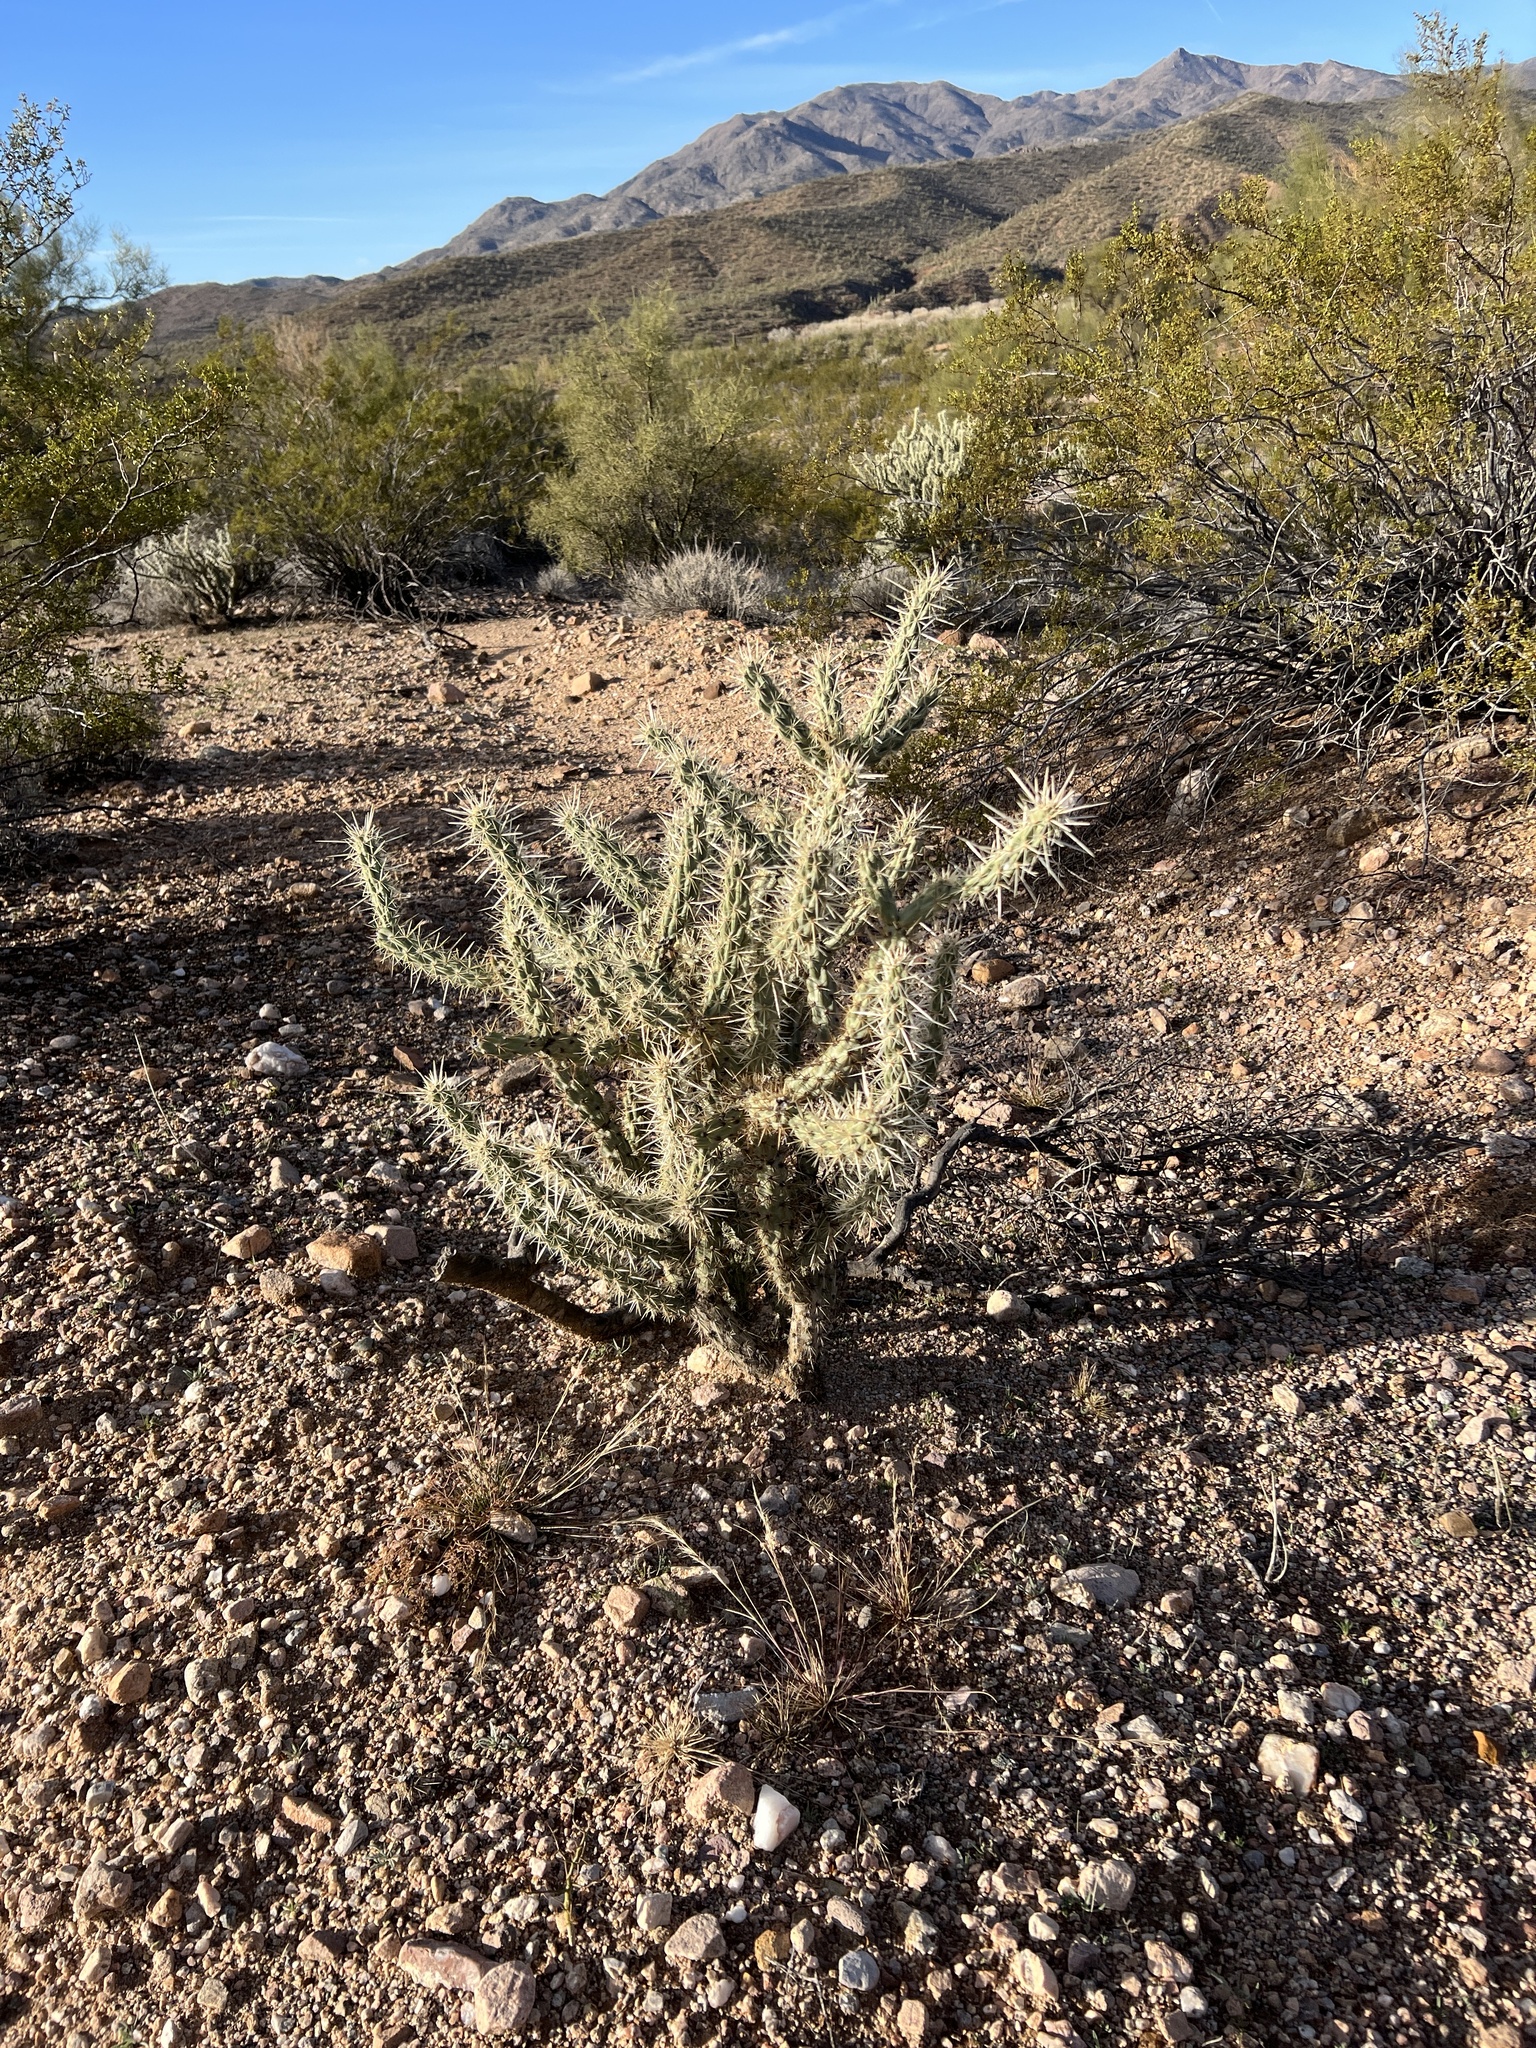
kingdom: Plantae
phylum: Tracheophyta
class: Magnoliopsida
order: Caryophyllales
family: Cactaceae
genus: Cylindropuntia
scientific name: Cylindropuntia acanthocarpa
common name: Buckhorn cholla
